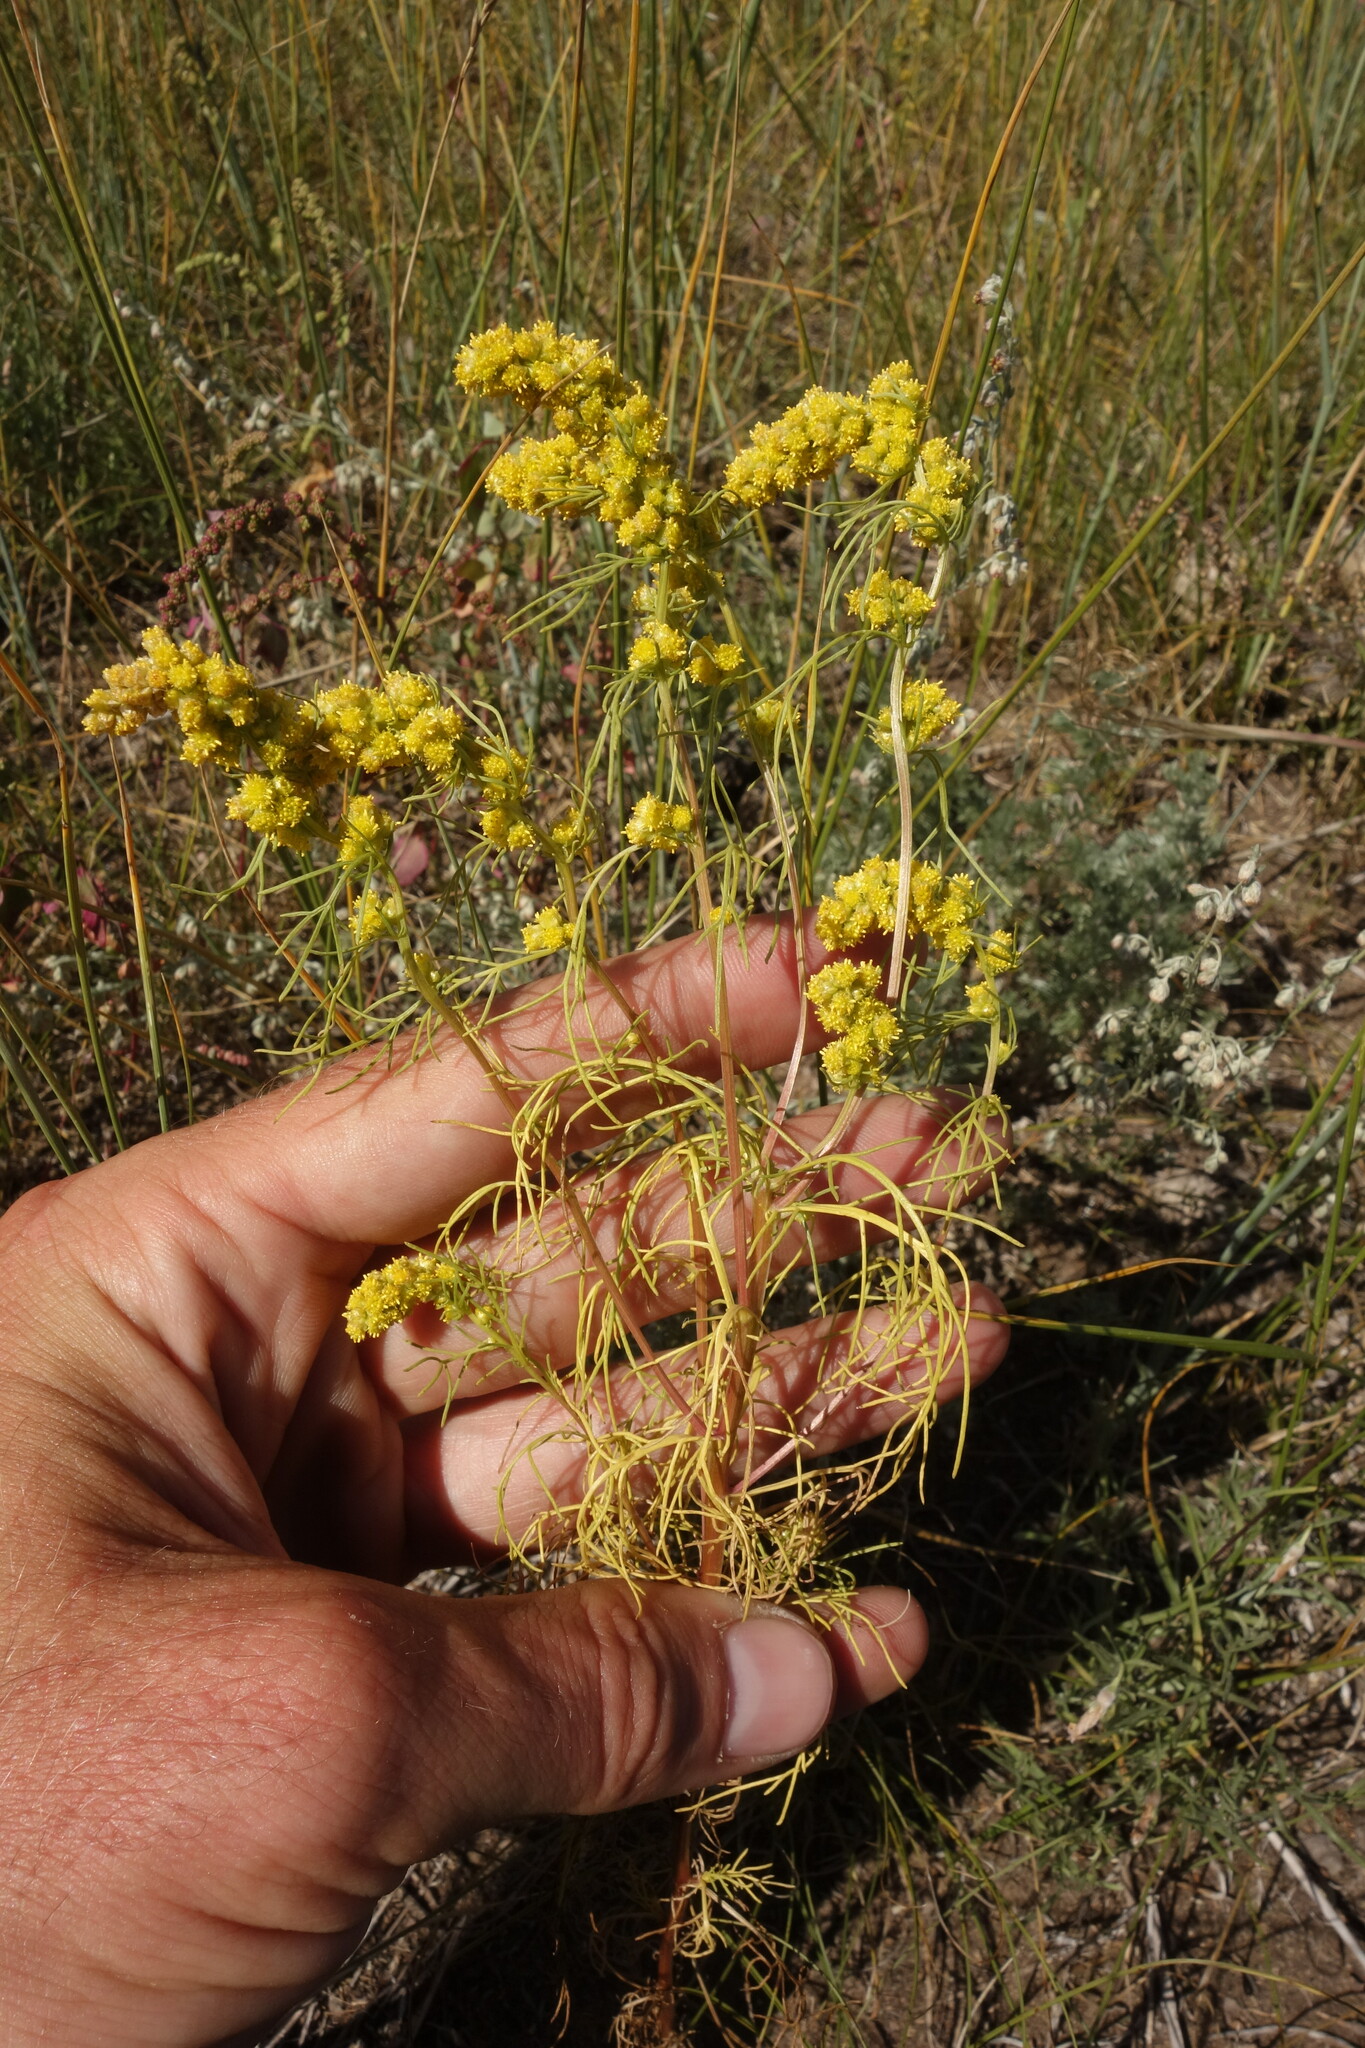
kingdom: Plantae
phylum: Tracheophyta
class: Magnoliopsida
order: Asterales
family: Asteraceae
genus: Artemisia
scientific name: Artemisia palustris
